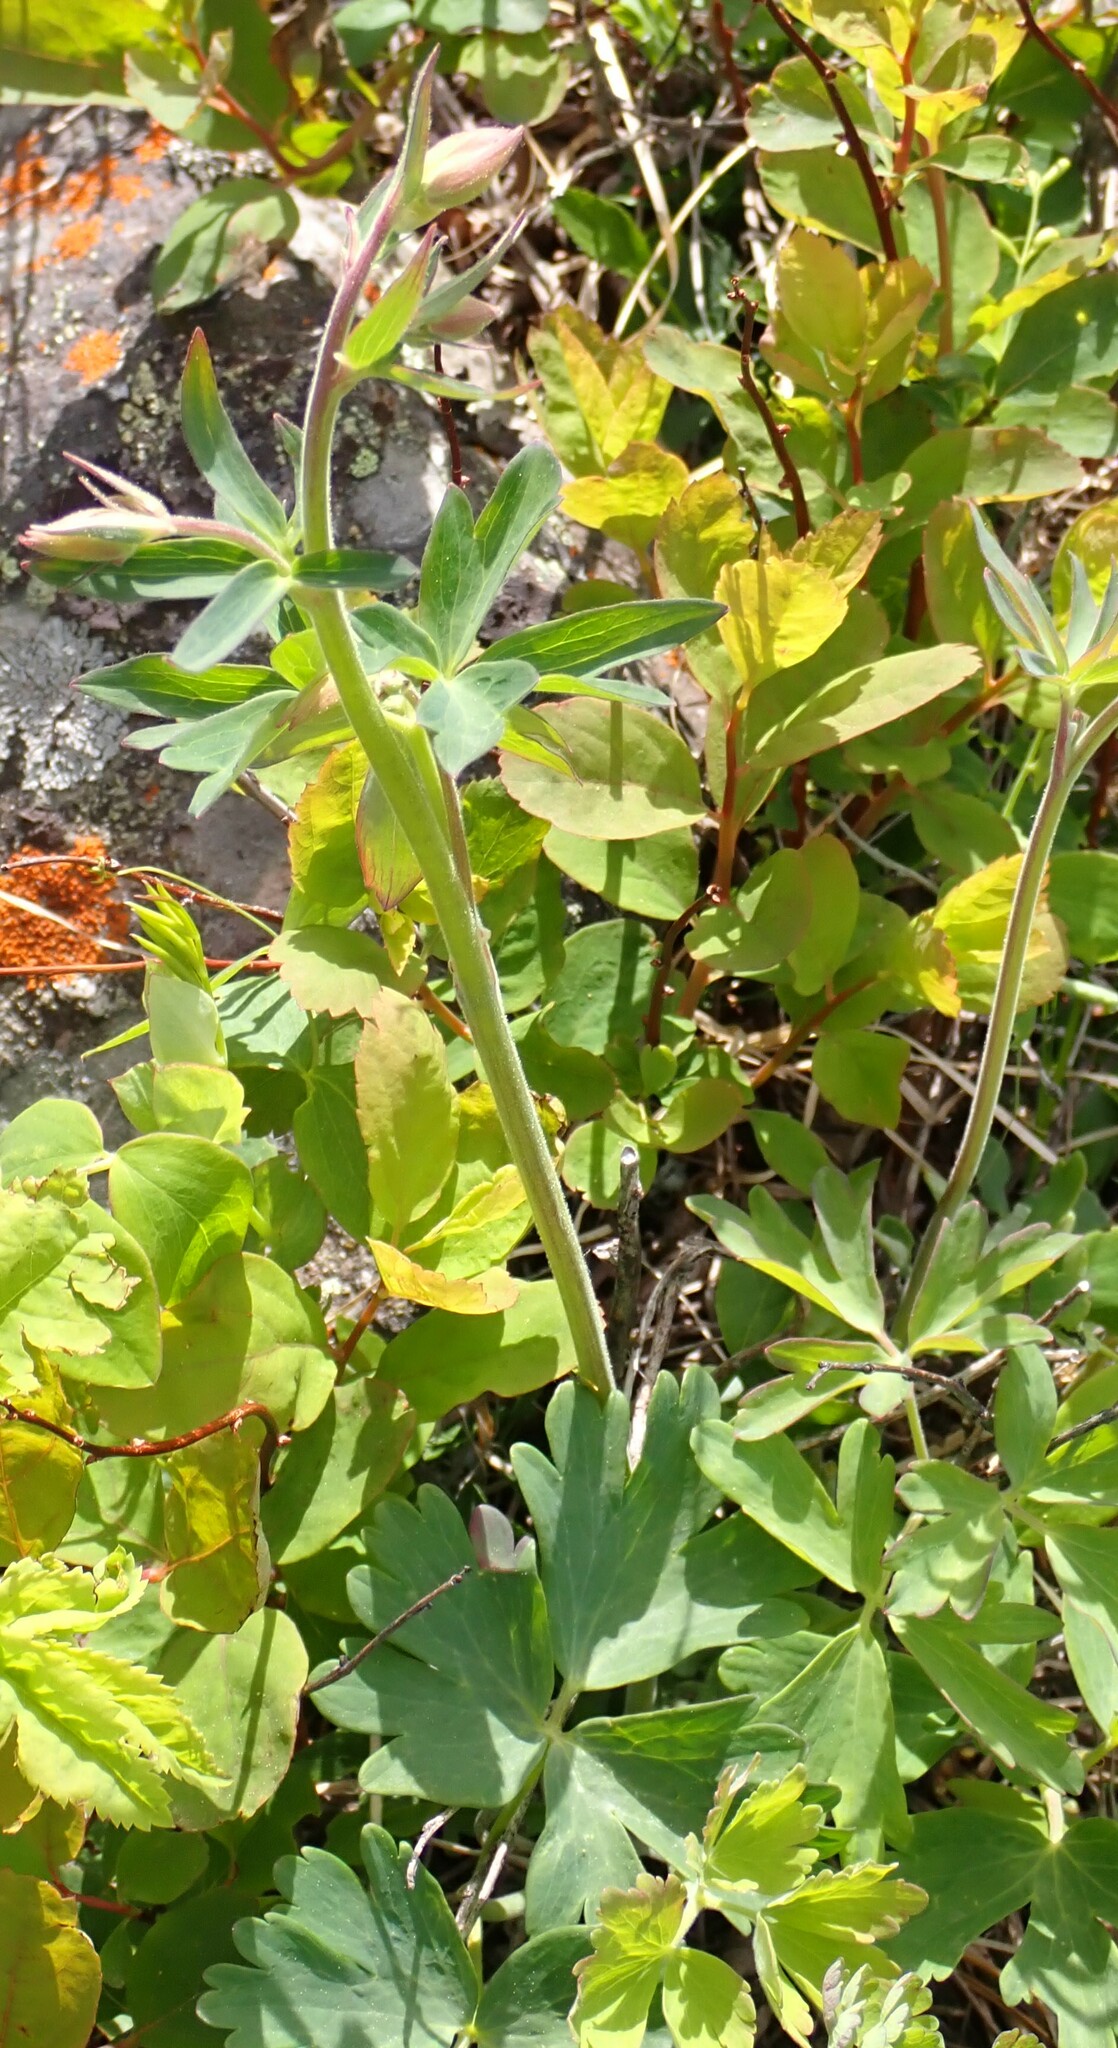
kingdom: Plantae
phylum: Tracheophyta
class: Magnoliopsida
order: Ranunculales
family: Ranunculaceae
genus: Aquilegia
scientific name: Aquilegia flavescens
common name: Yellow columbine
